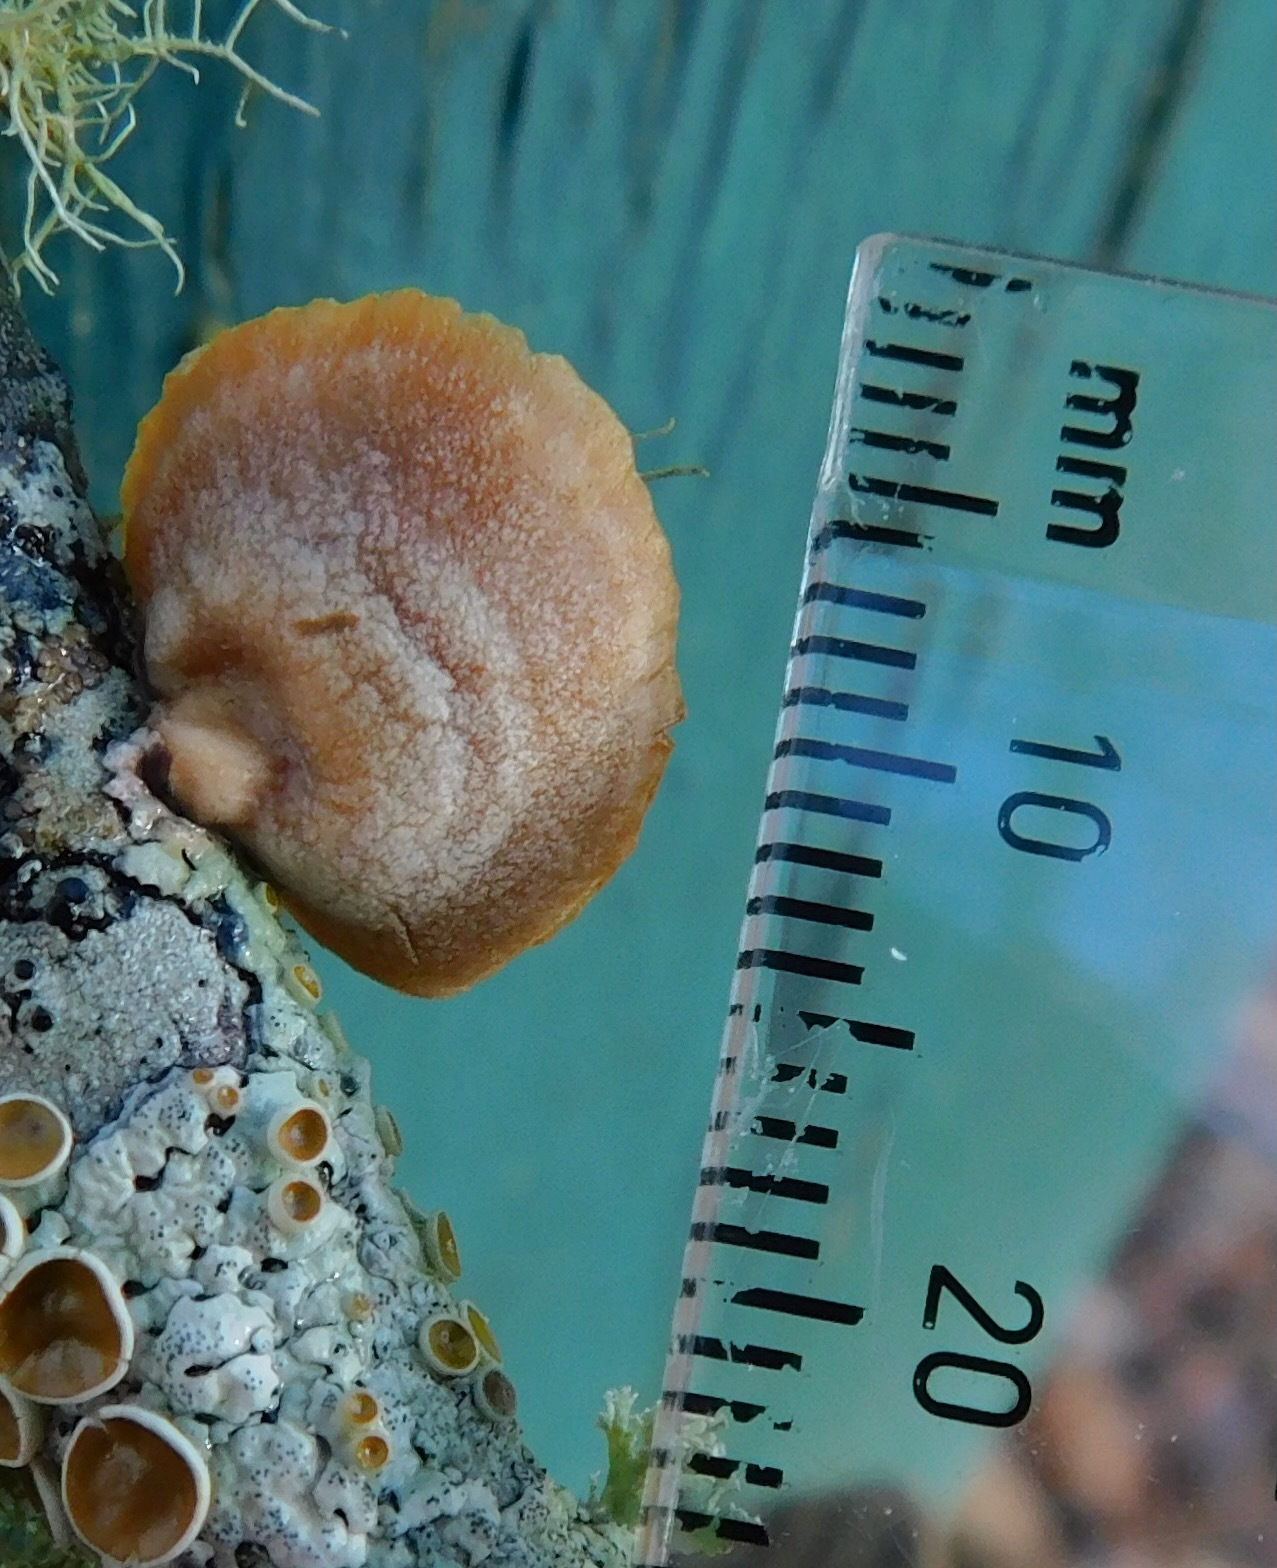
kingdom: Fungi
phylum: Basidiomycota
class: Agaricomycetes
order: Agaricales
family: Mycenaceae
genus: Panellus
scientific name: Panellus stipticus
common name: Bitter oysterling
